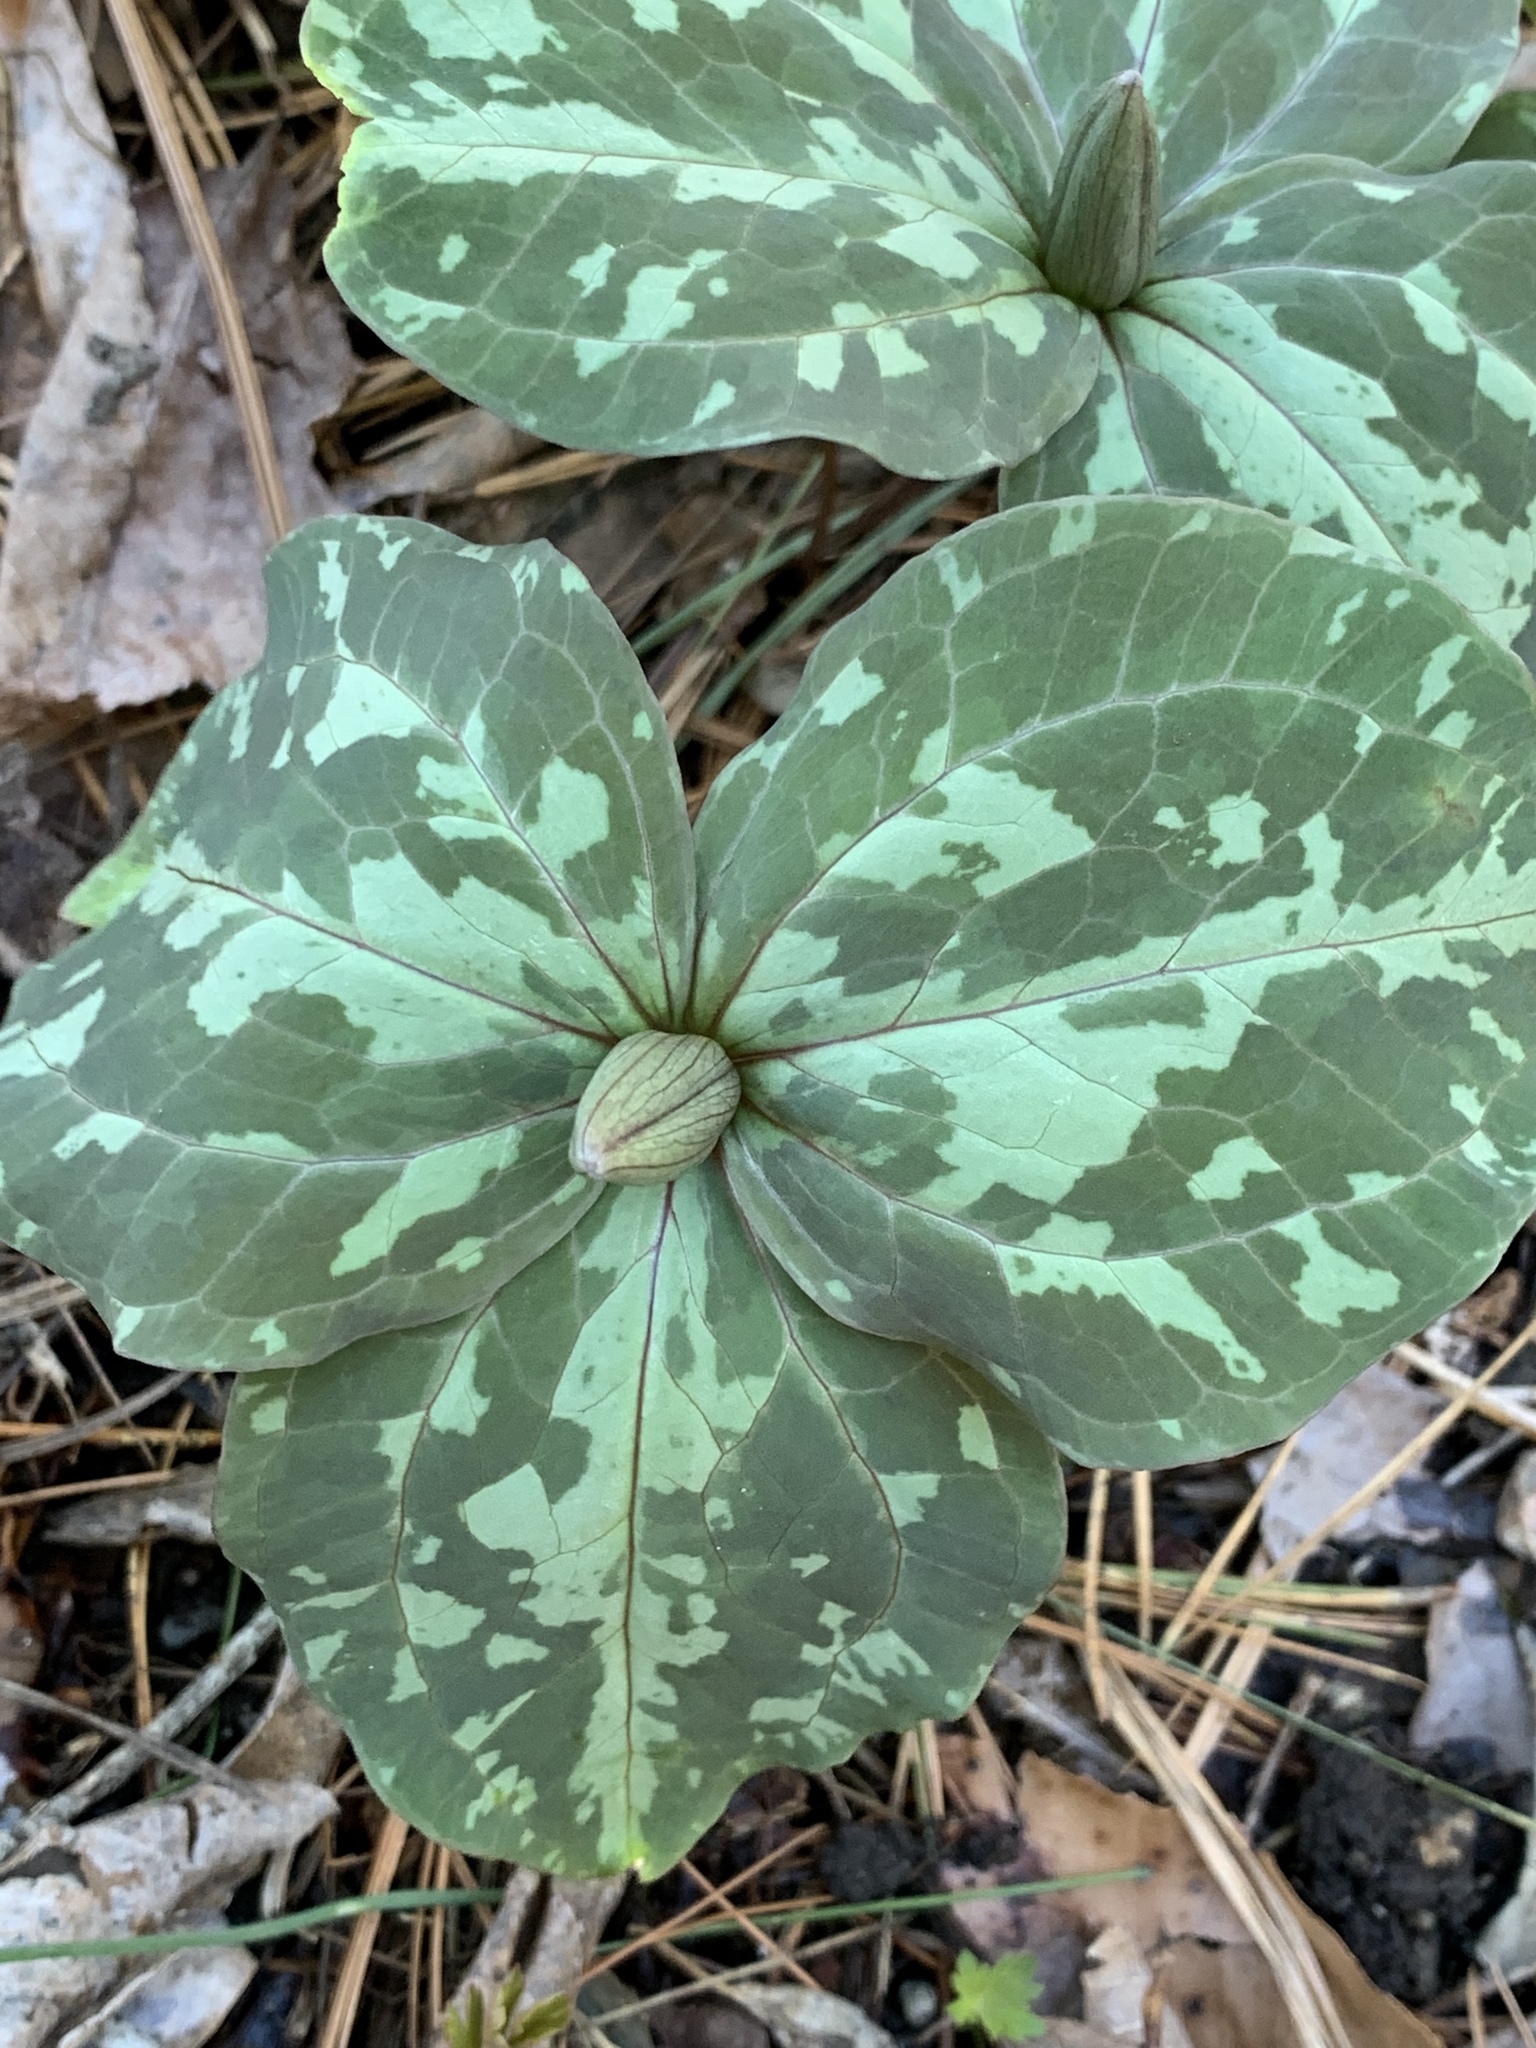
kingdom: Plantae
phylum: Tracheophyta
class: Liliopsida
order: Liliales
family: Melanthiaceae
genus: Trillium
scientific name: Trillium cuneatum
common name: Cuneate trillium
